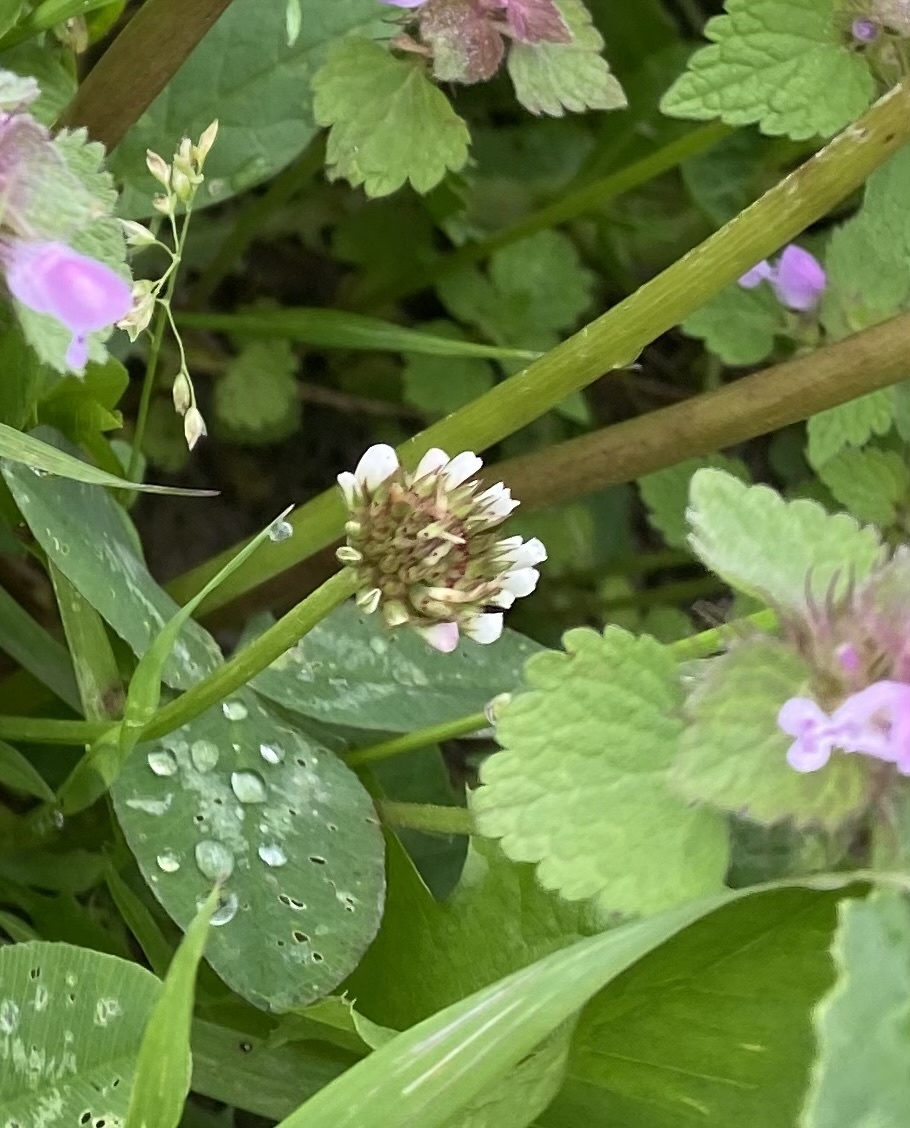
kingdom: Plantae
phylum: Tracheophyta
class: Magnoliopsida
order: Fabales
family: Fabaceae
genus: Trifolium
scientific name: Trifolium repens
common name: White clover
